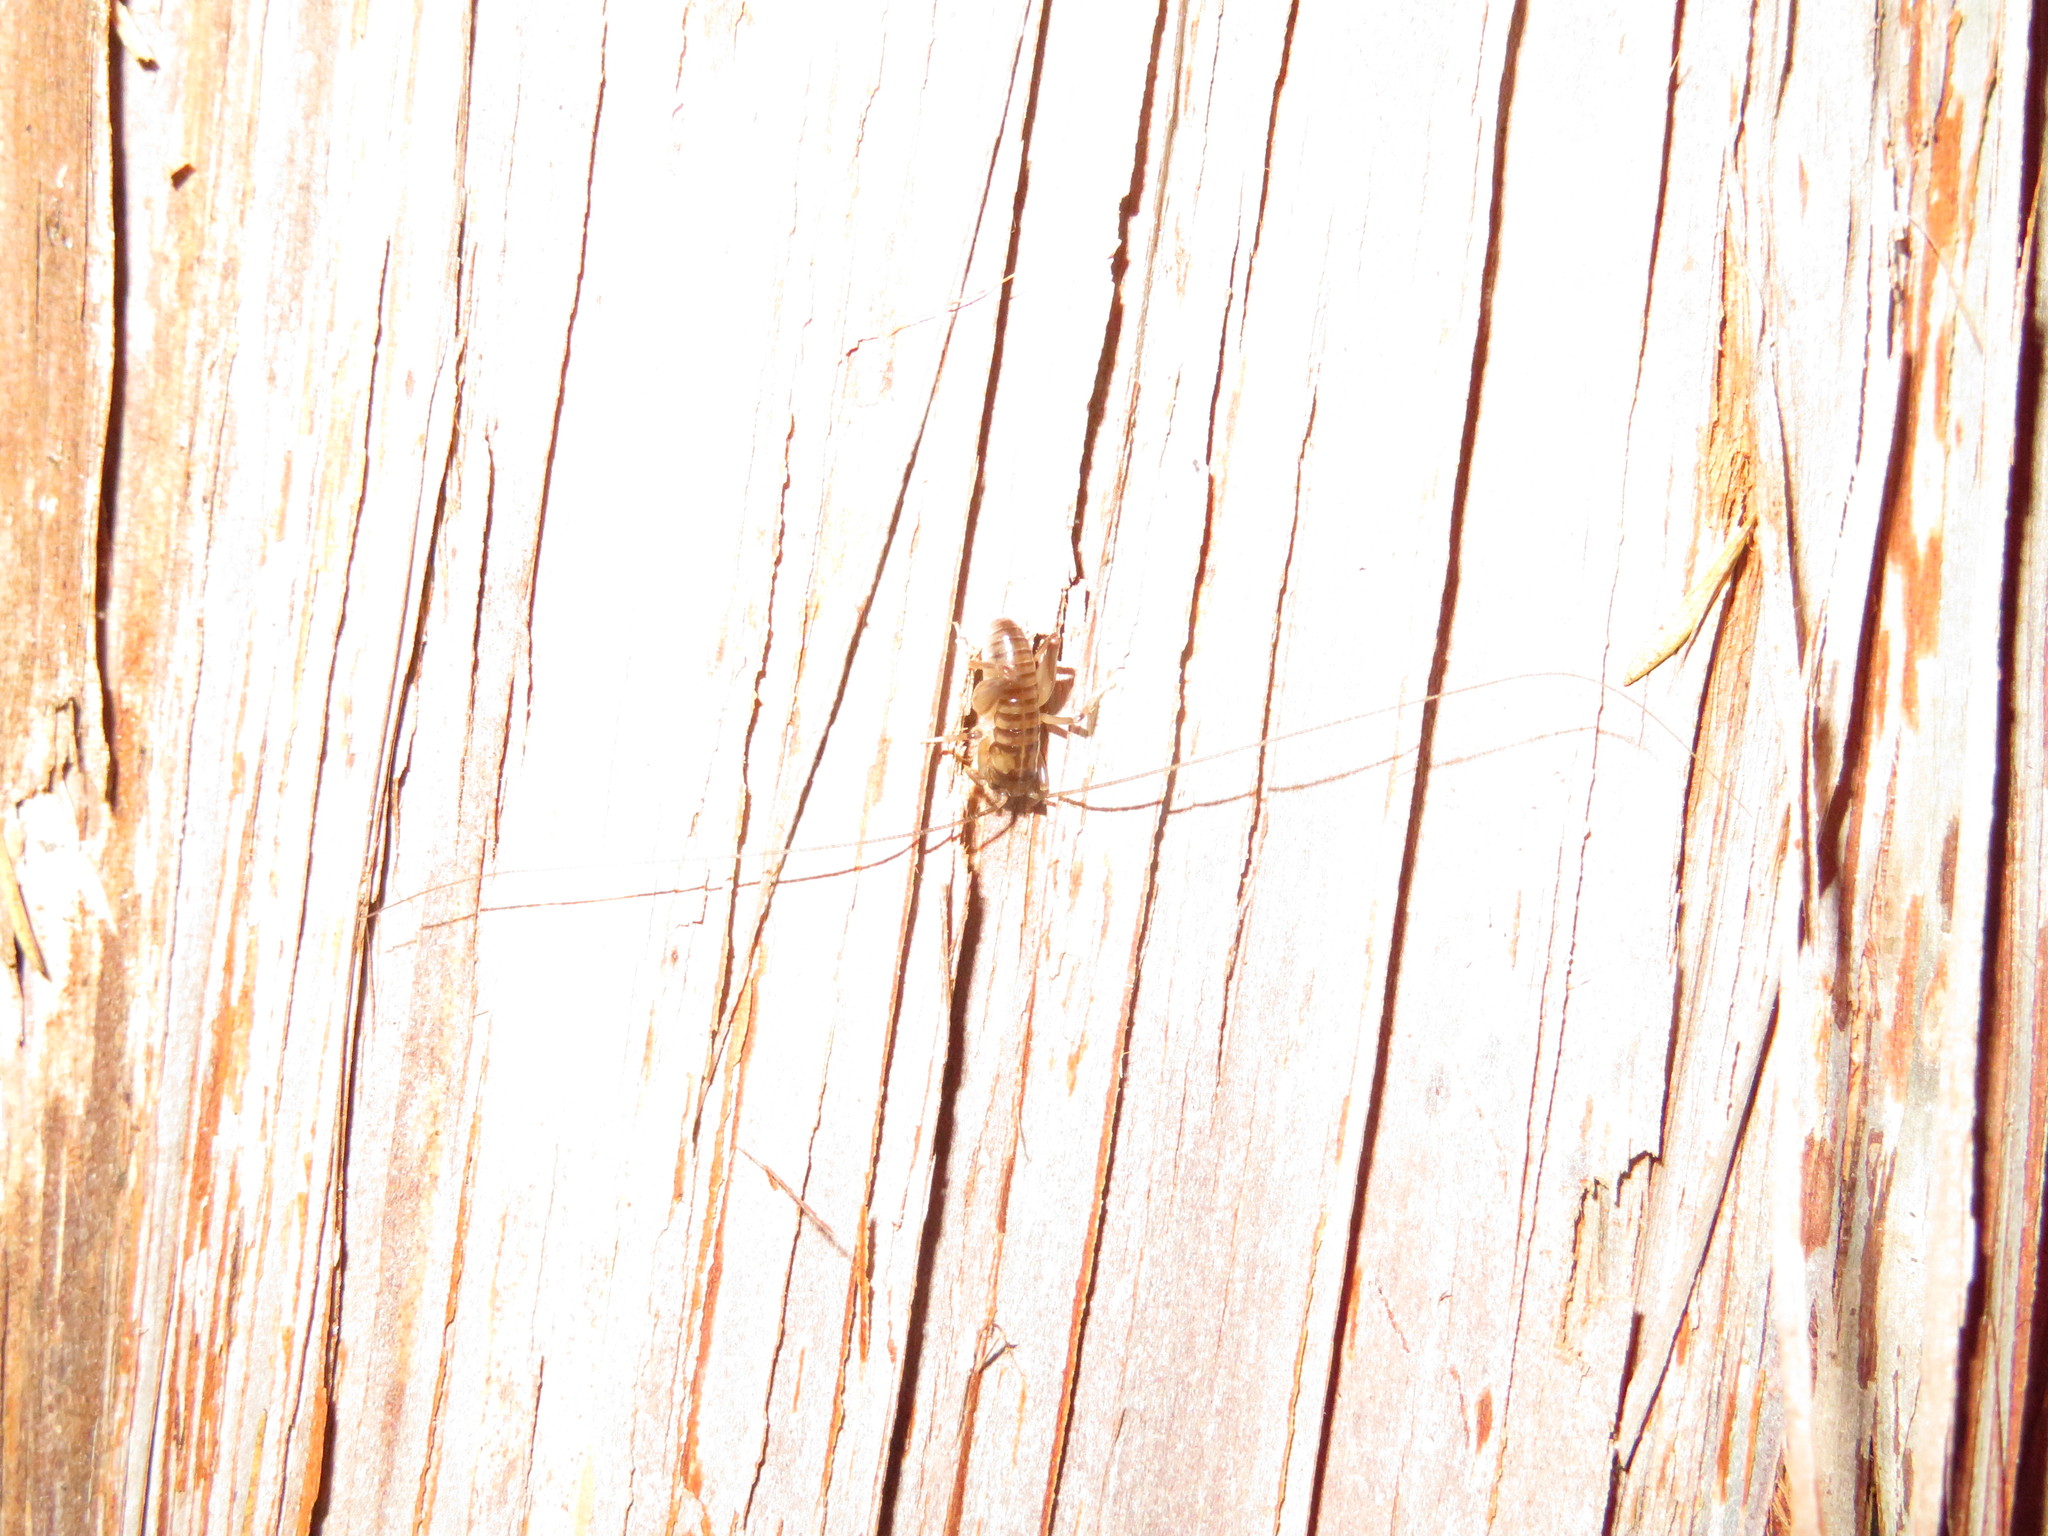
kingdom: Animalia
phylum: Arthropoda
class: Insecta
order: Orthoptera
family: Anostostomatidae
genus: Hemiandrus
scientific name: Hemiandrus pallitarsis
